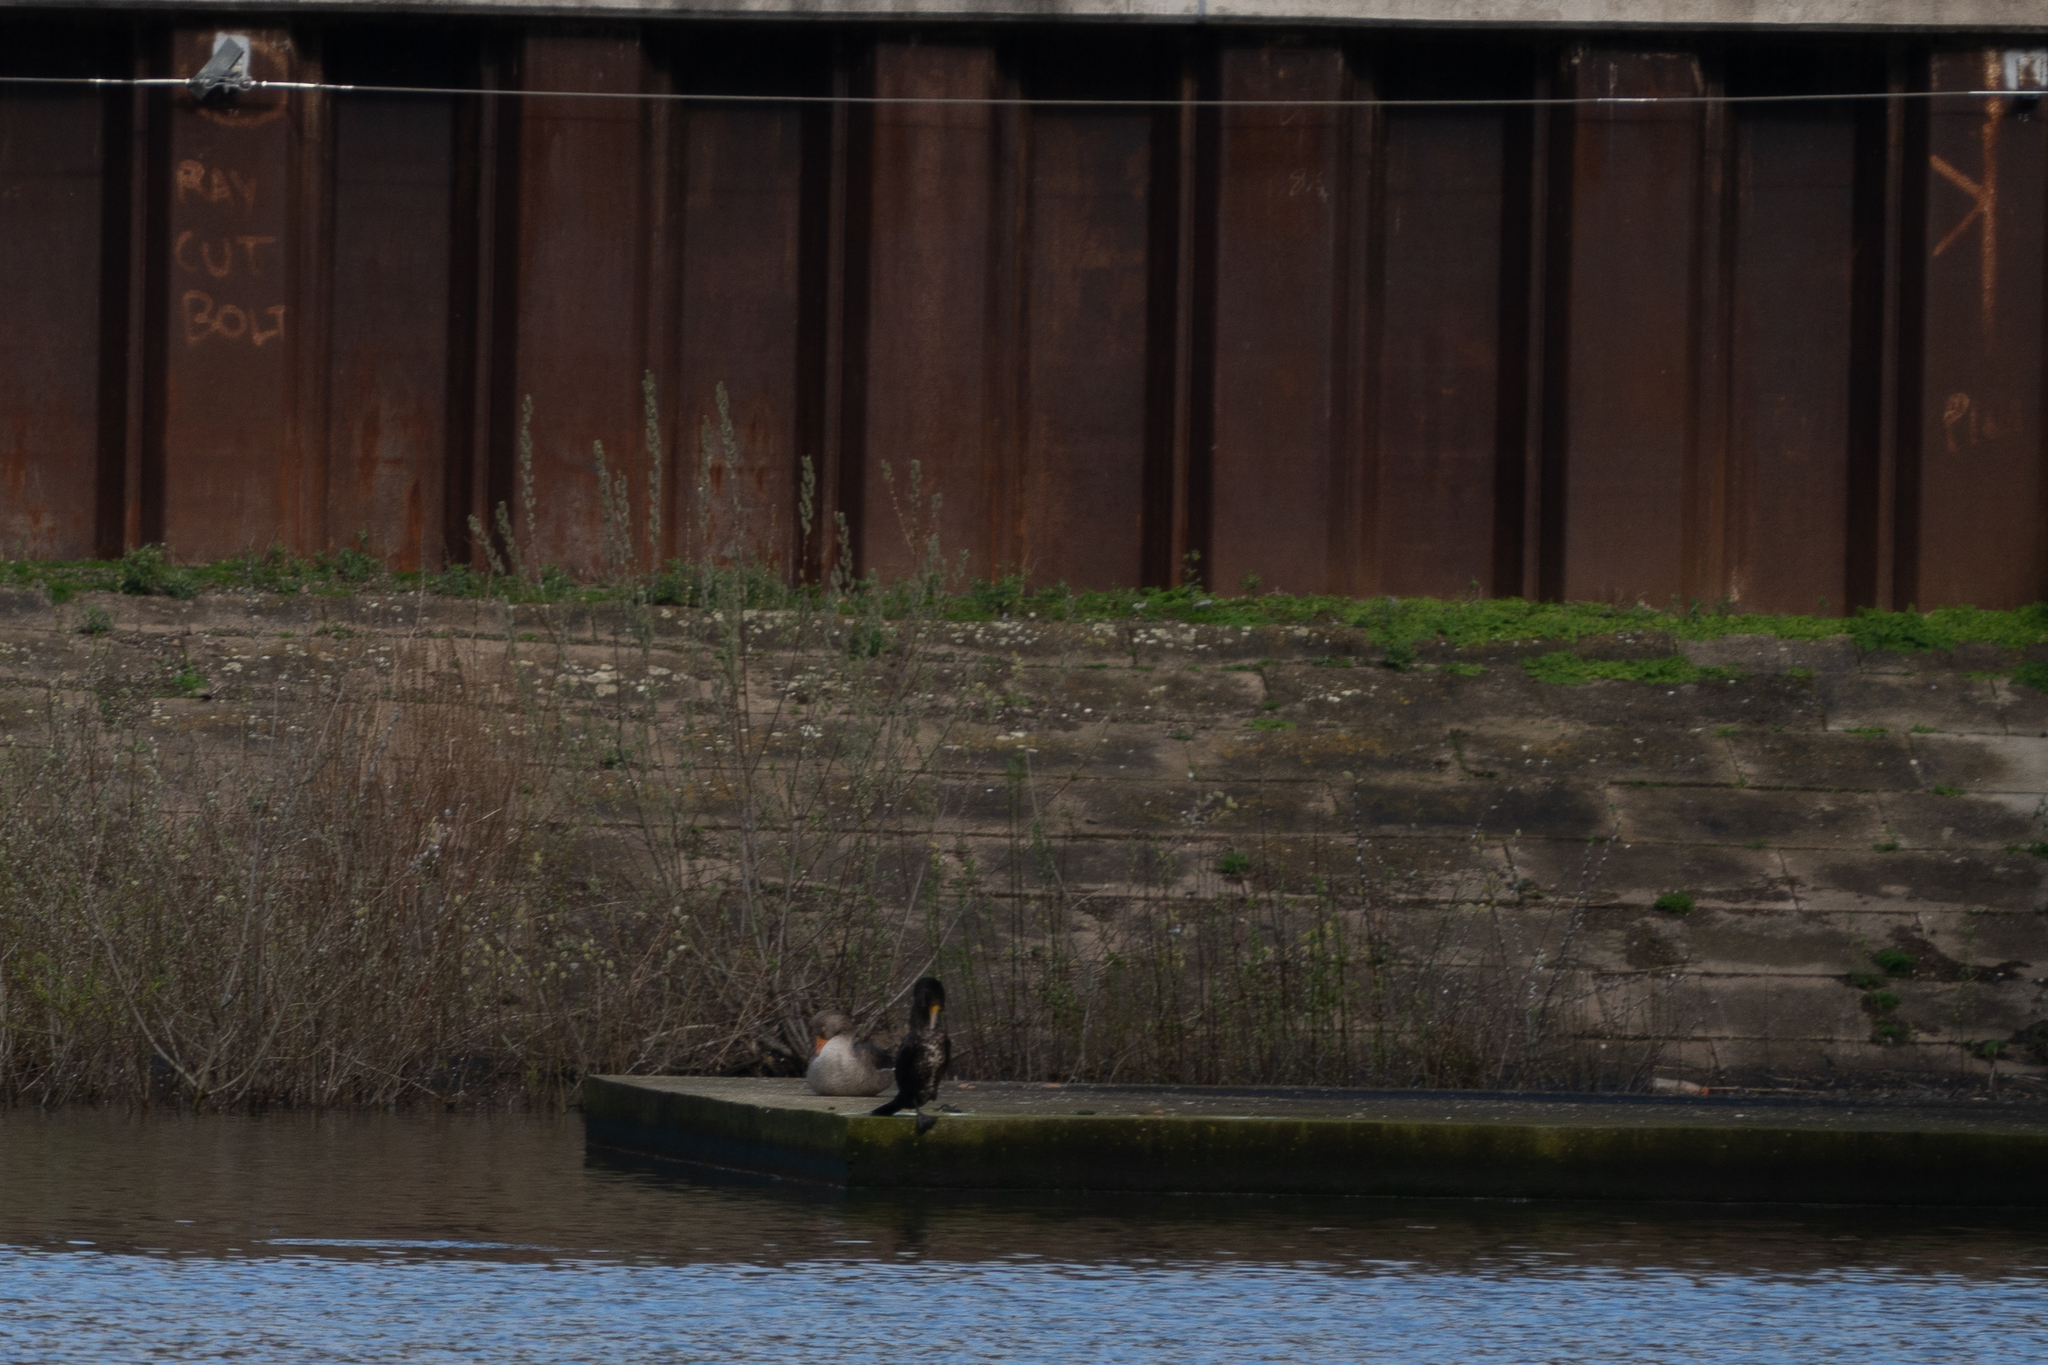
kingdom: Animalia
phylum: Chordata
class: Aves
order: Anseriformes
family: Anatidae
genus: Anser
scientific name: Anser anser
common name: Greylag goose
